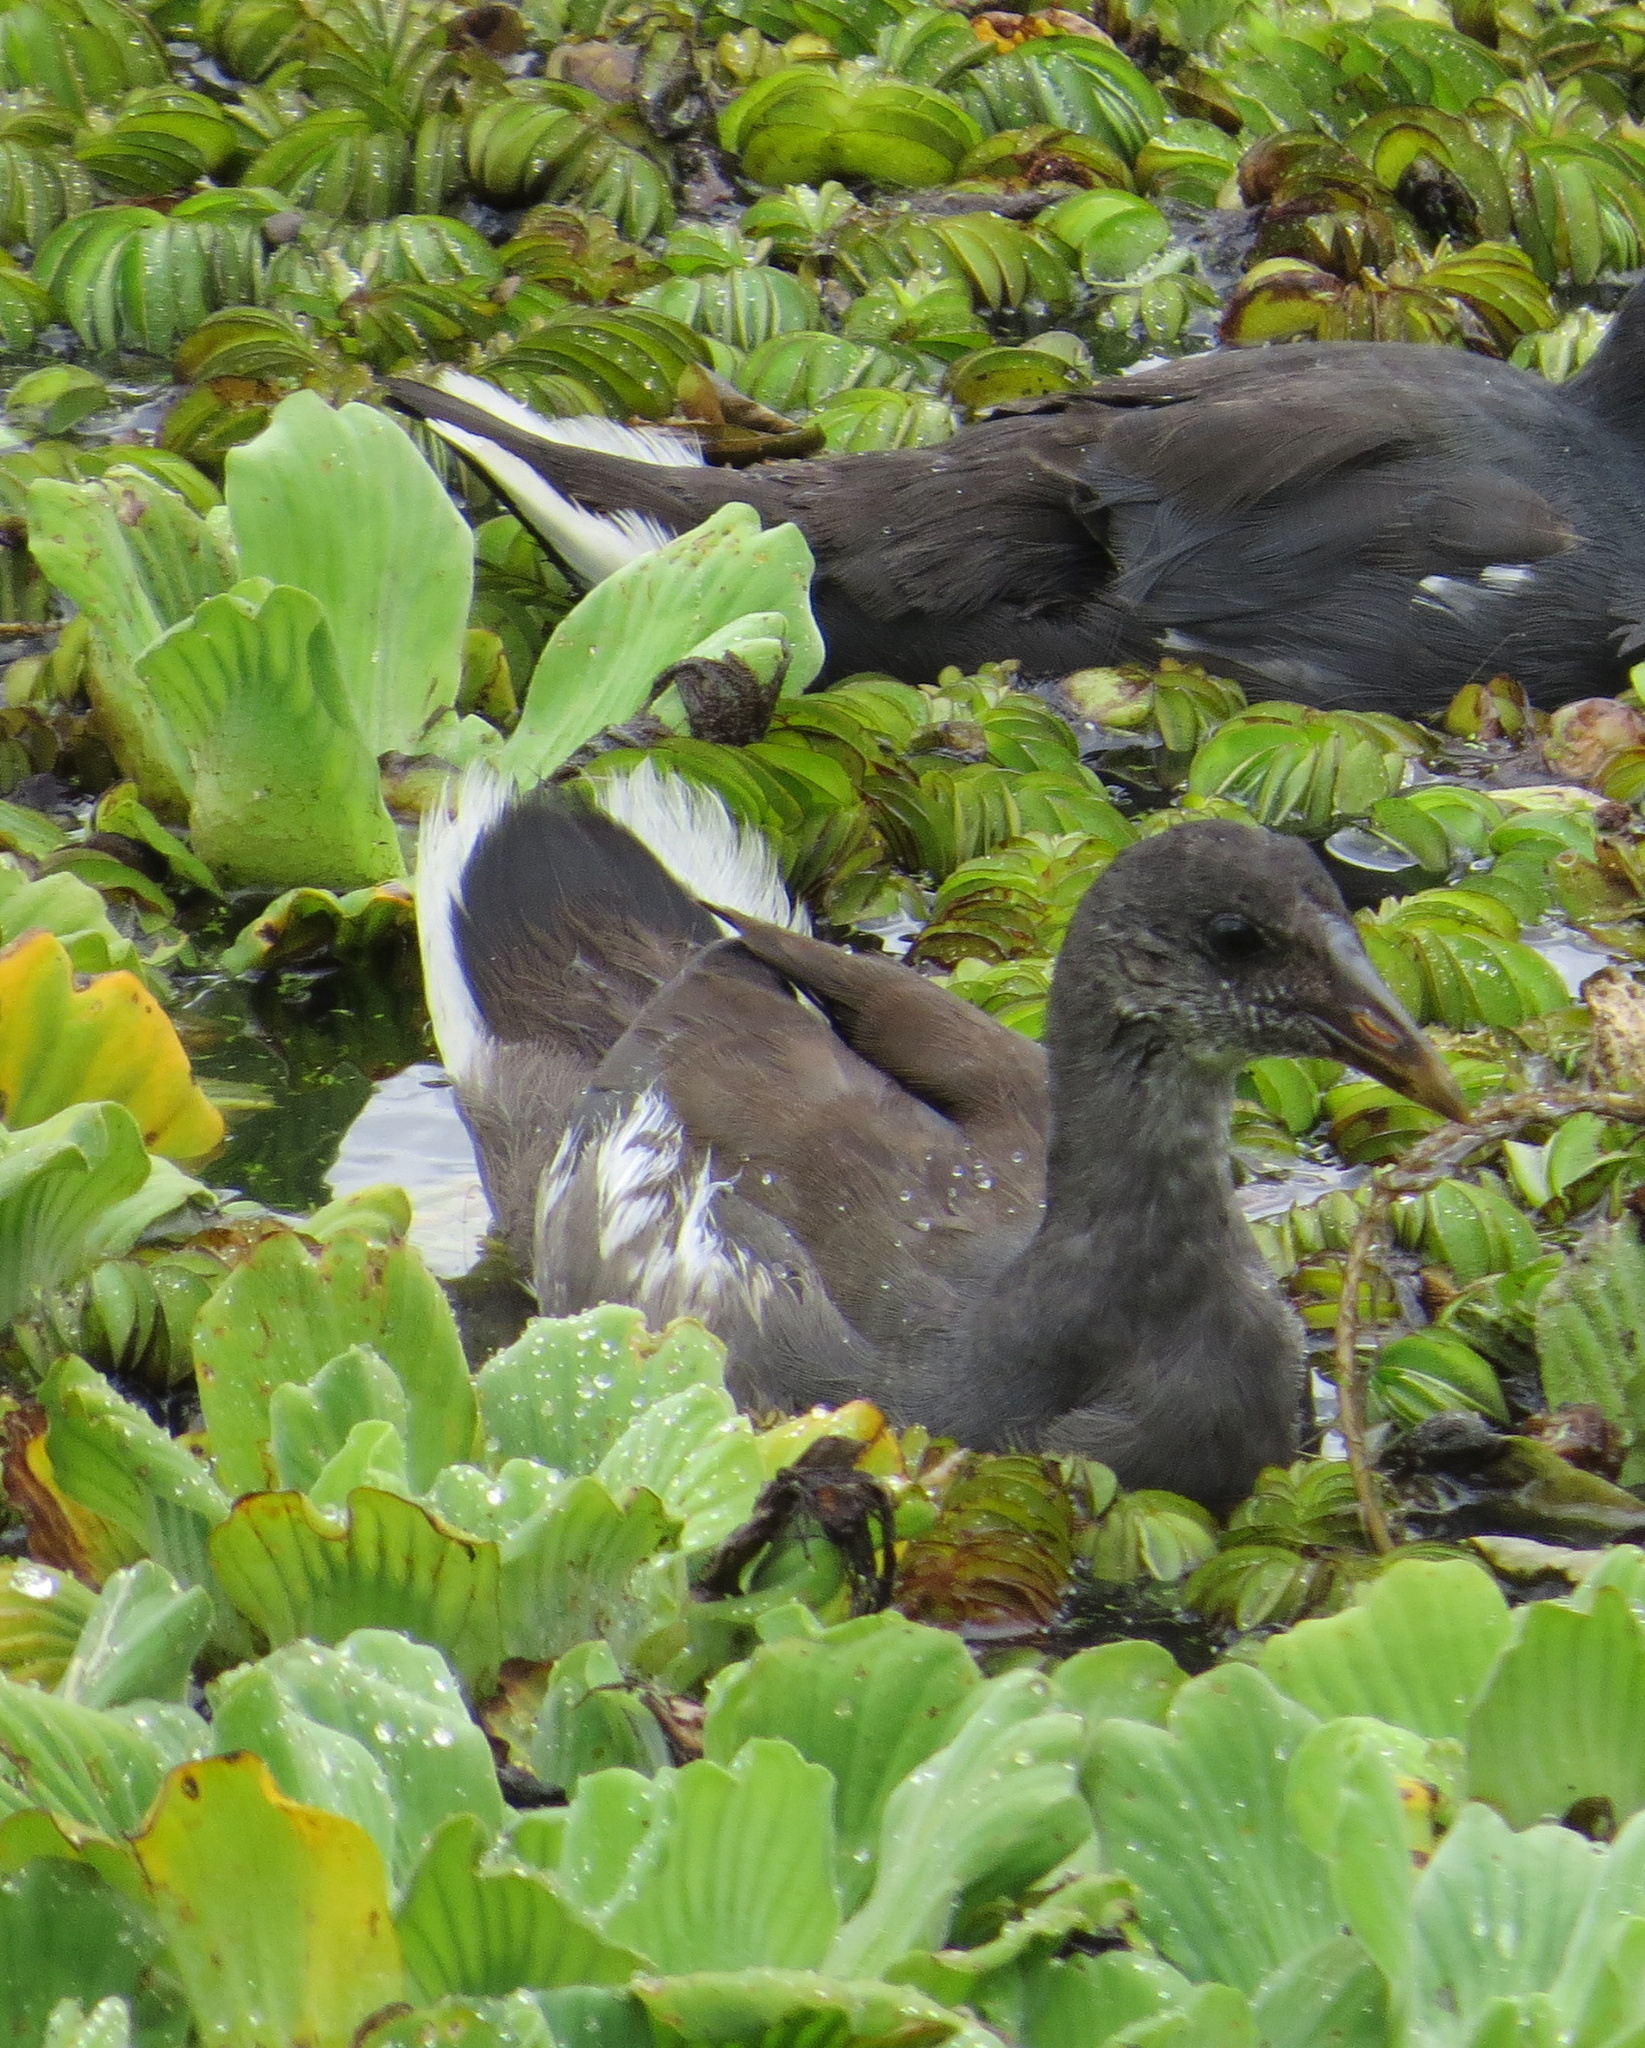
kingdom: Animalia
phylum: Chordata
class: Aves
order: Gruiformes
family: Rallidae
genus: Gallinula
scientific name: Gallinula chloropus
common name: Common moorhen
